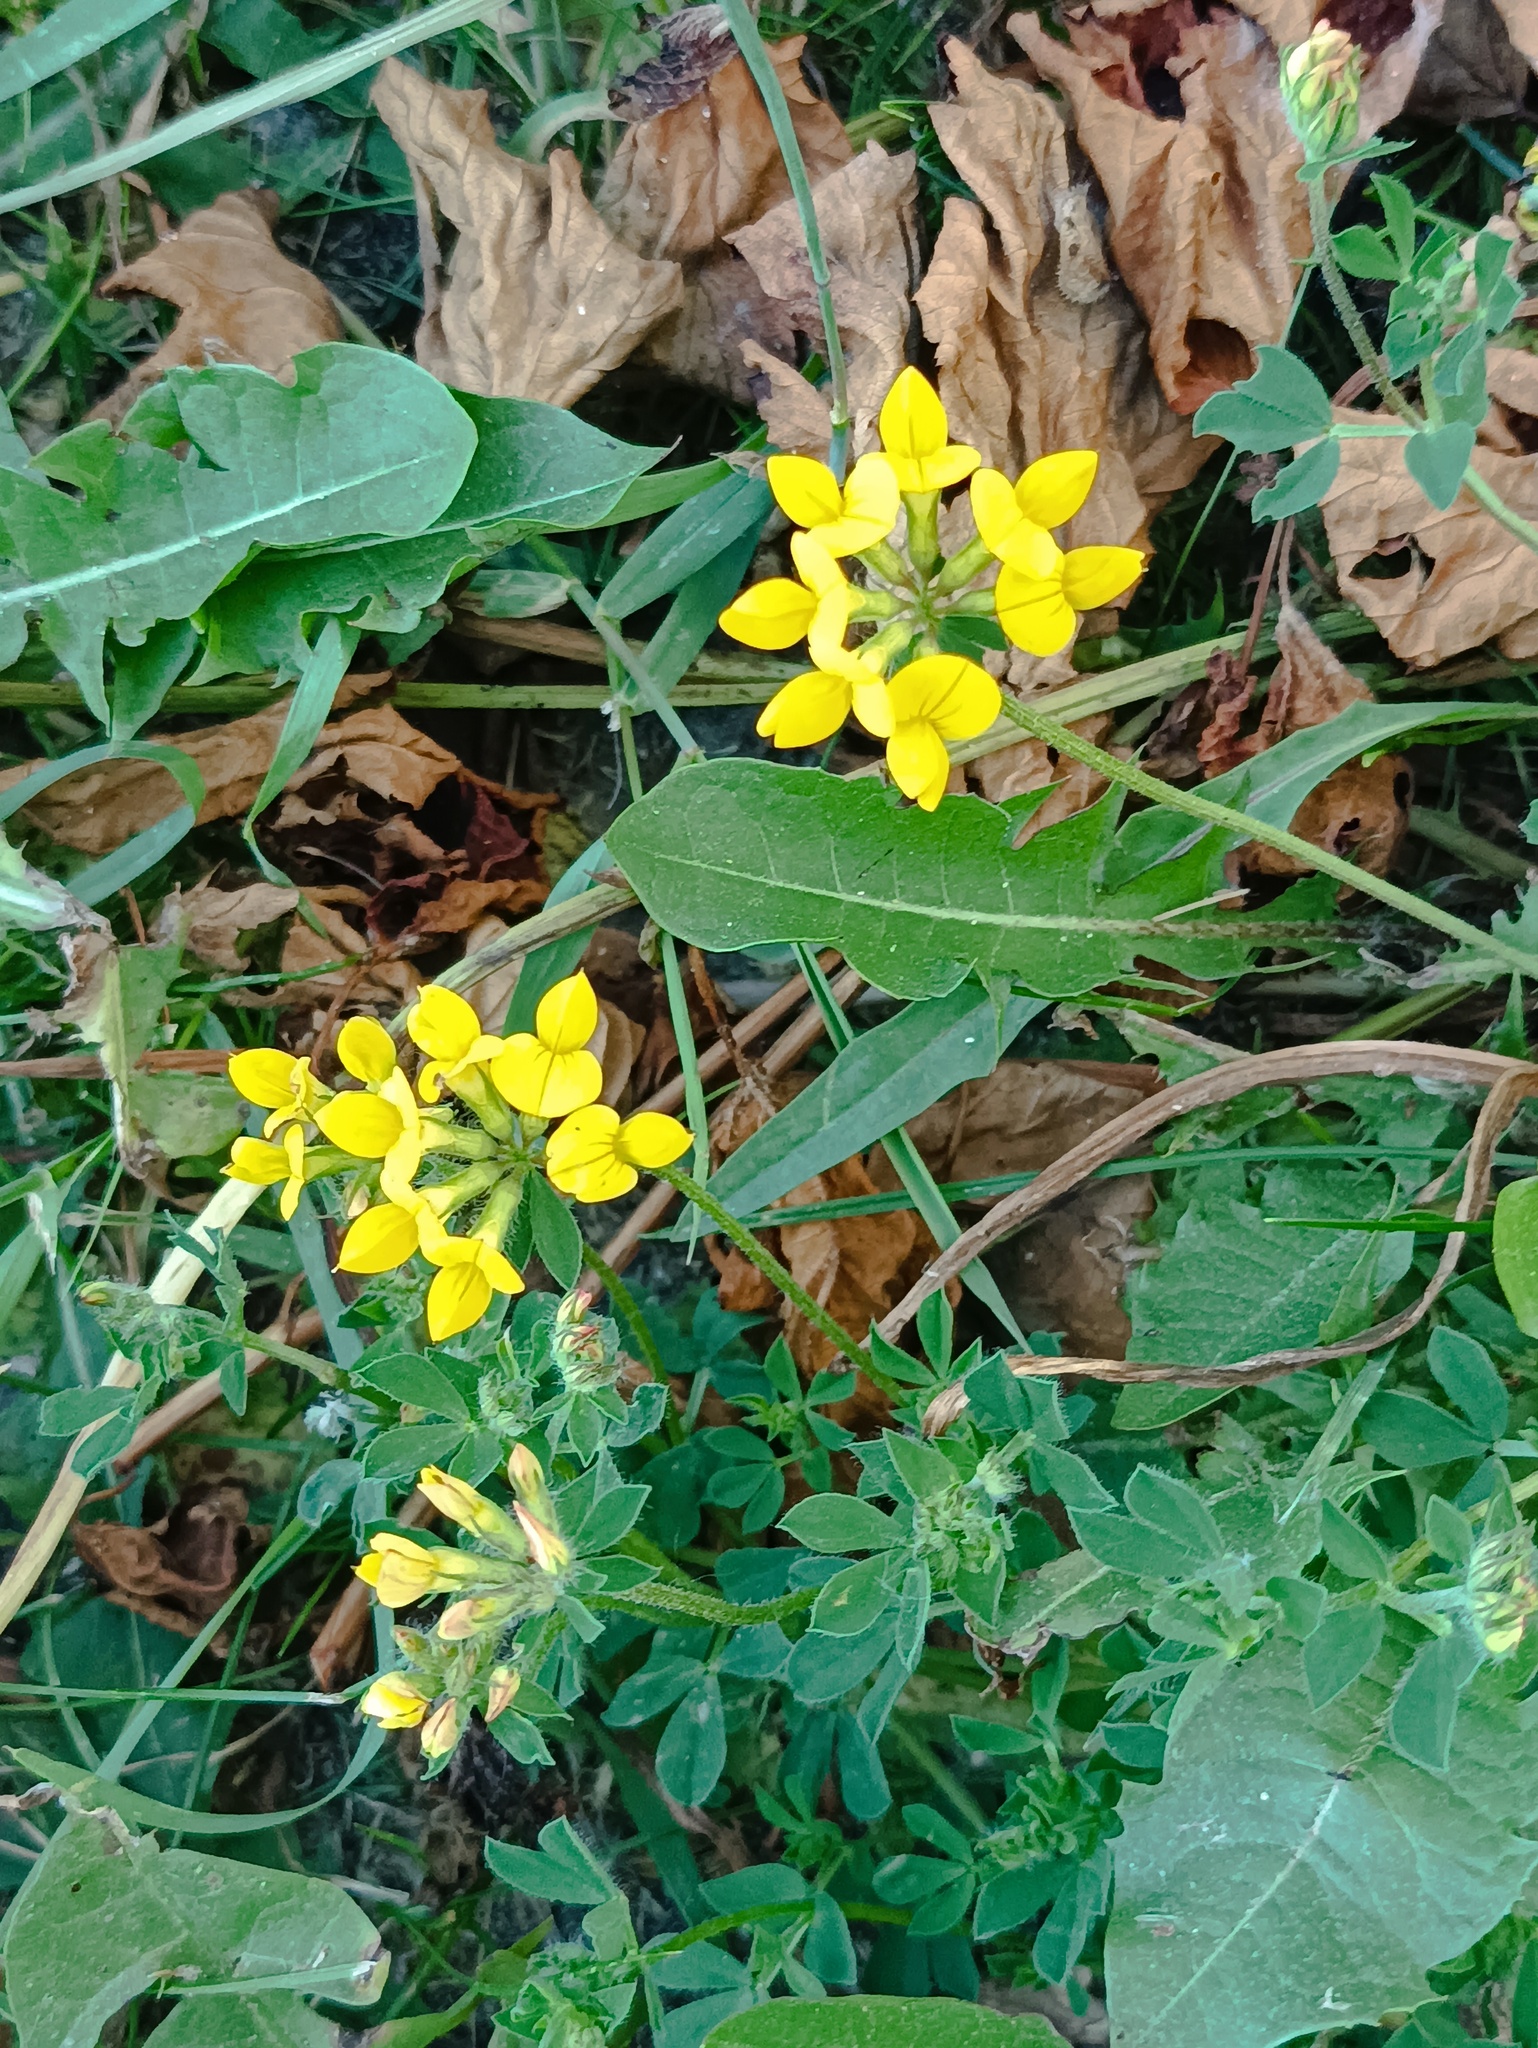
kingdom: Plantae
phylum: Tracheophyta
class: Magnoliopsida
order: Fabales
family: Fabaceae
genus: Lotus
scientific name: Lotus corniculatus
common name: Common bird's-foot-trefoil
